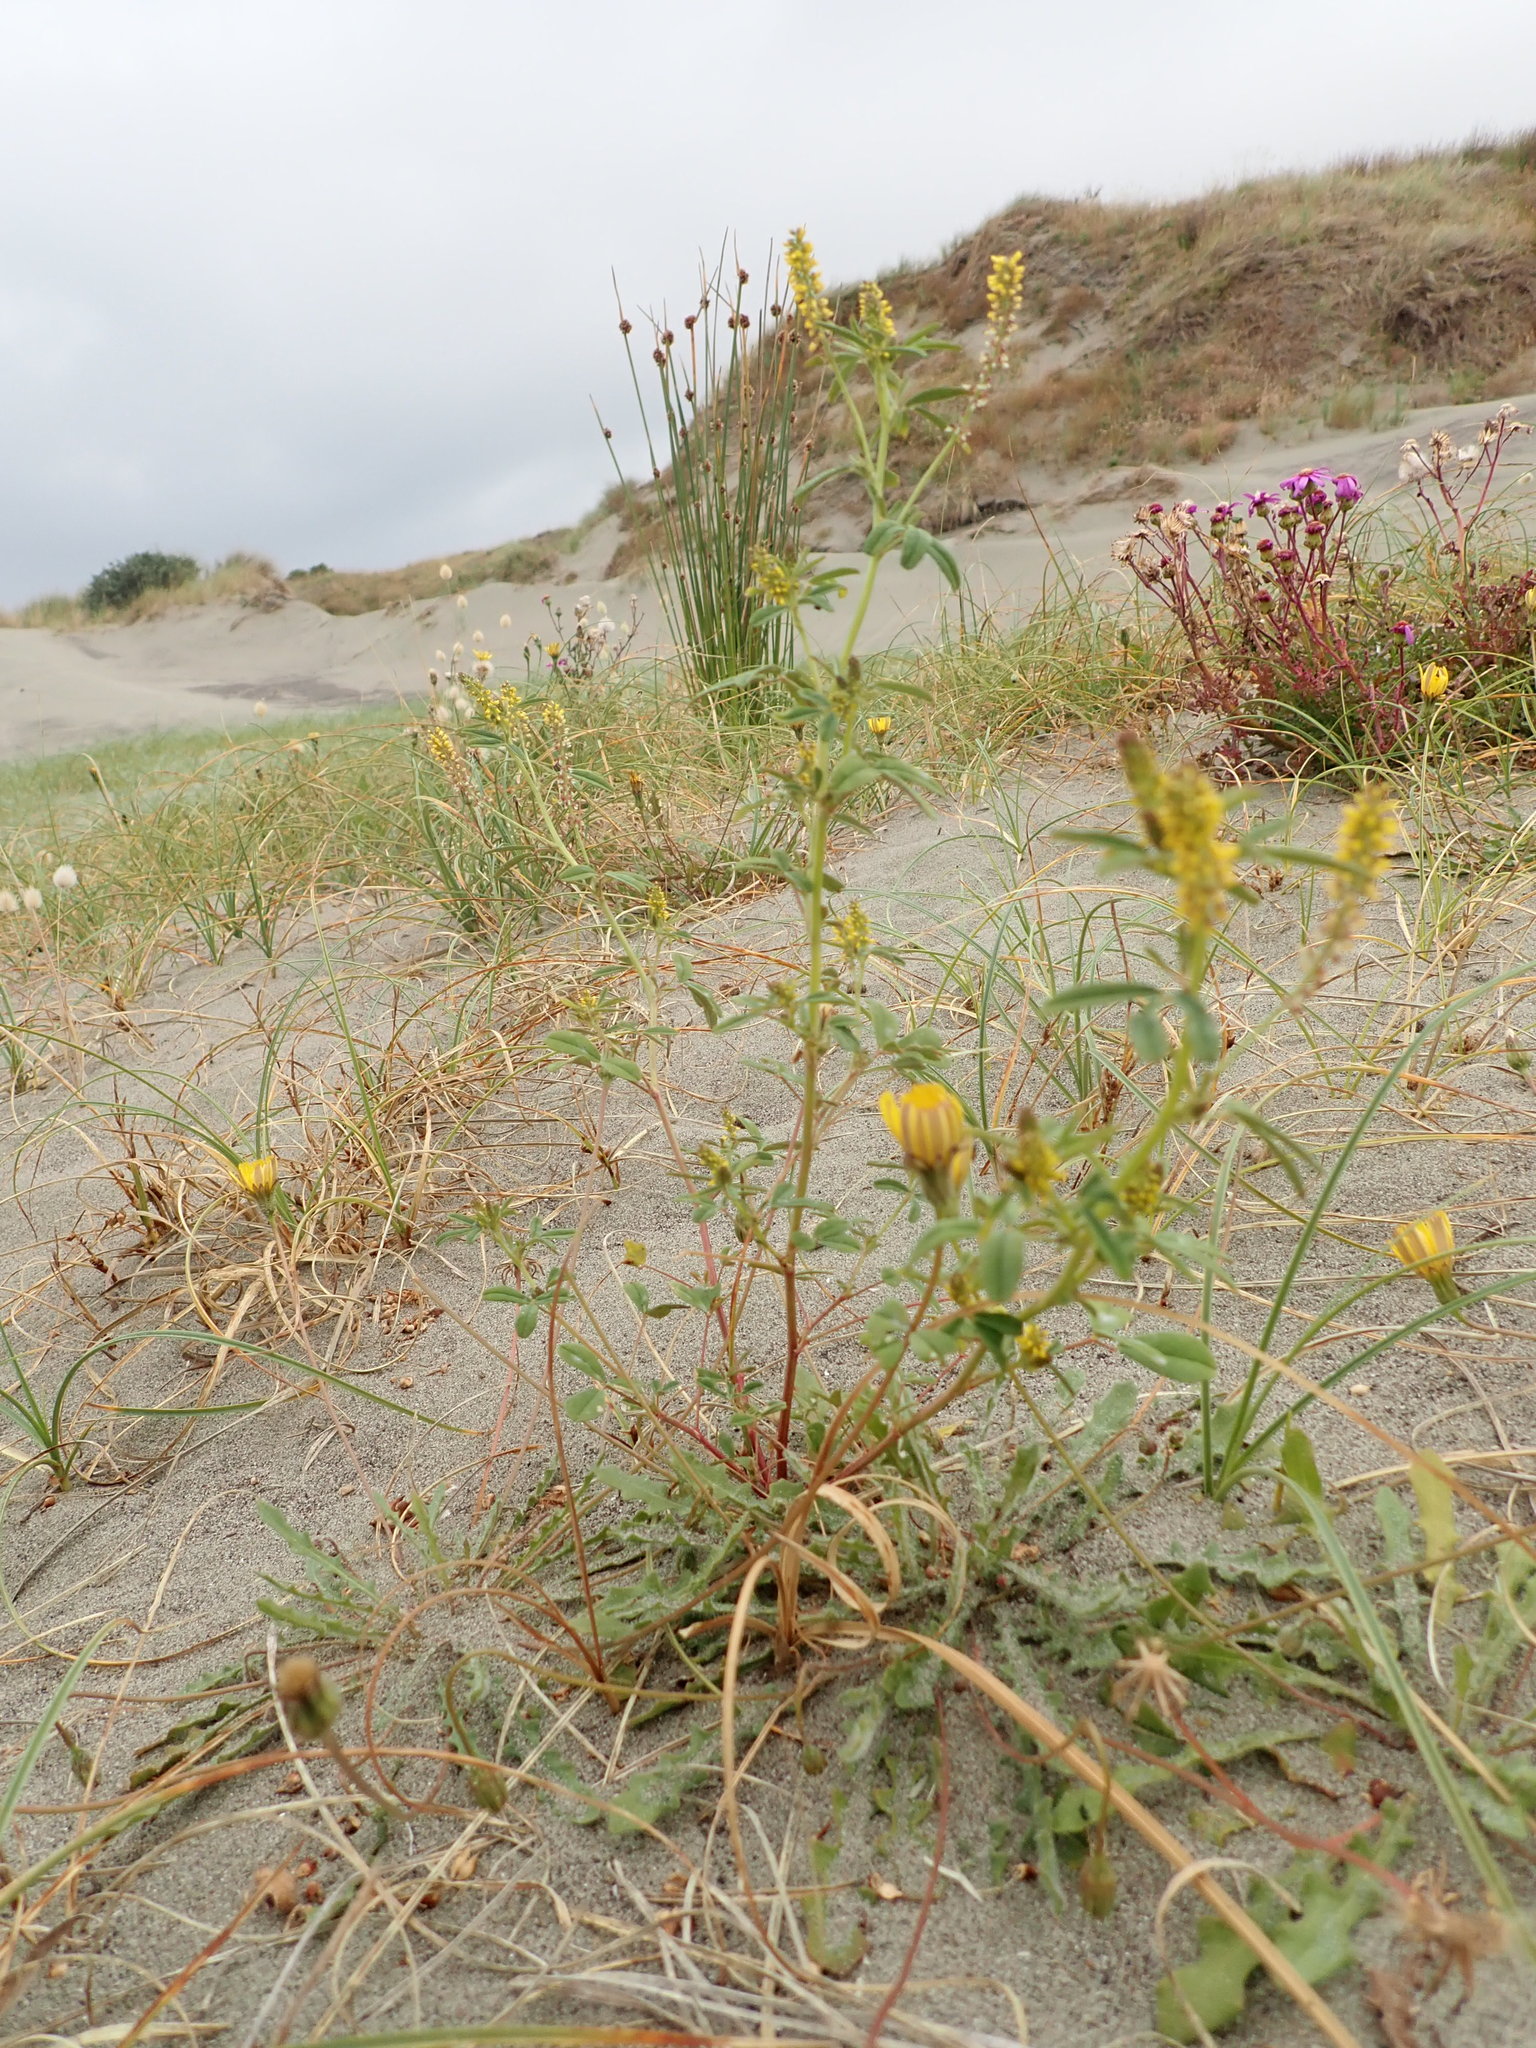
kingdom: Plantae
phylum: Tracheophyta
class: Magnoliopsida
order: Fabales
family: Fabaceae
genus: Melilotus
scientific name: Melilotus indicus
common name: Small melilot
